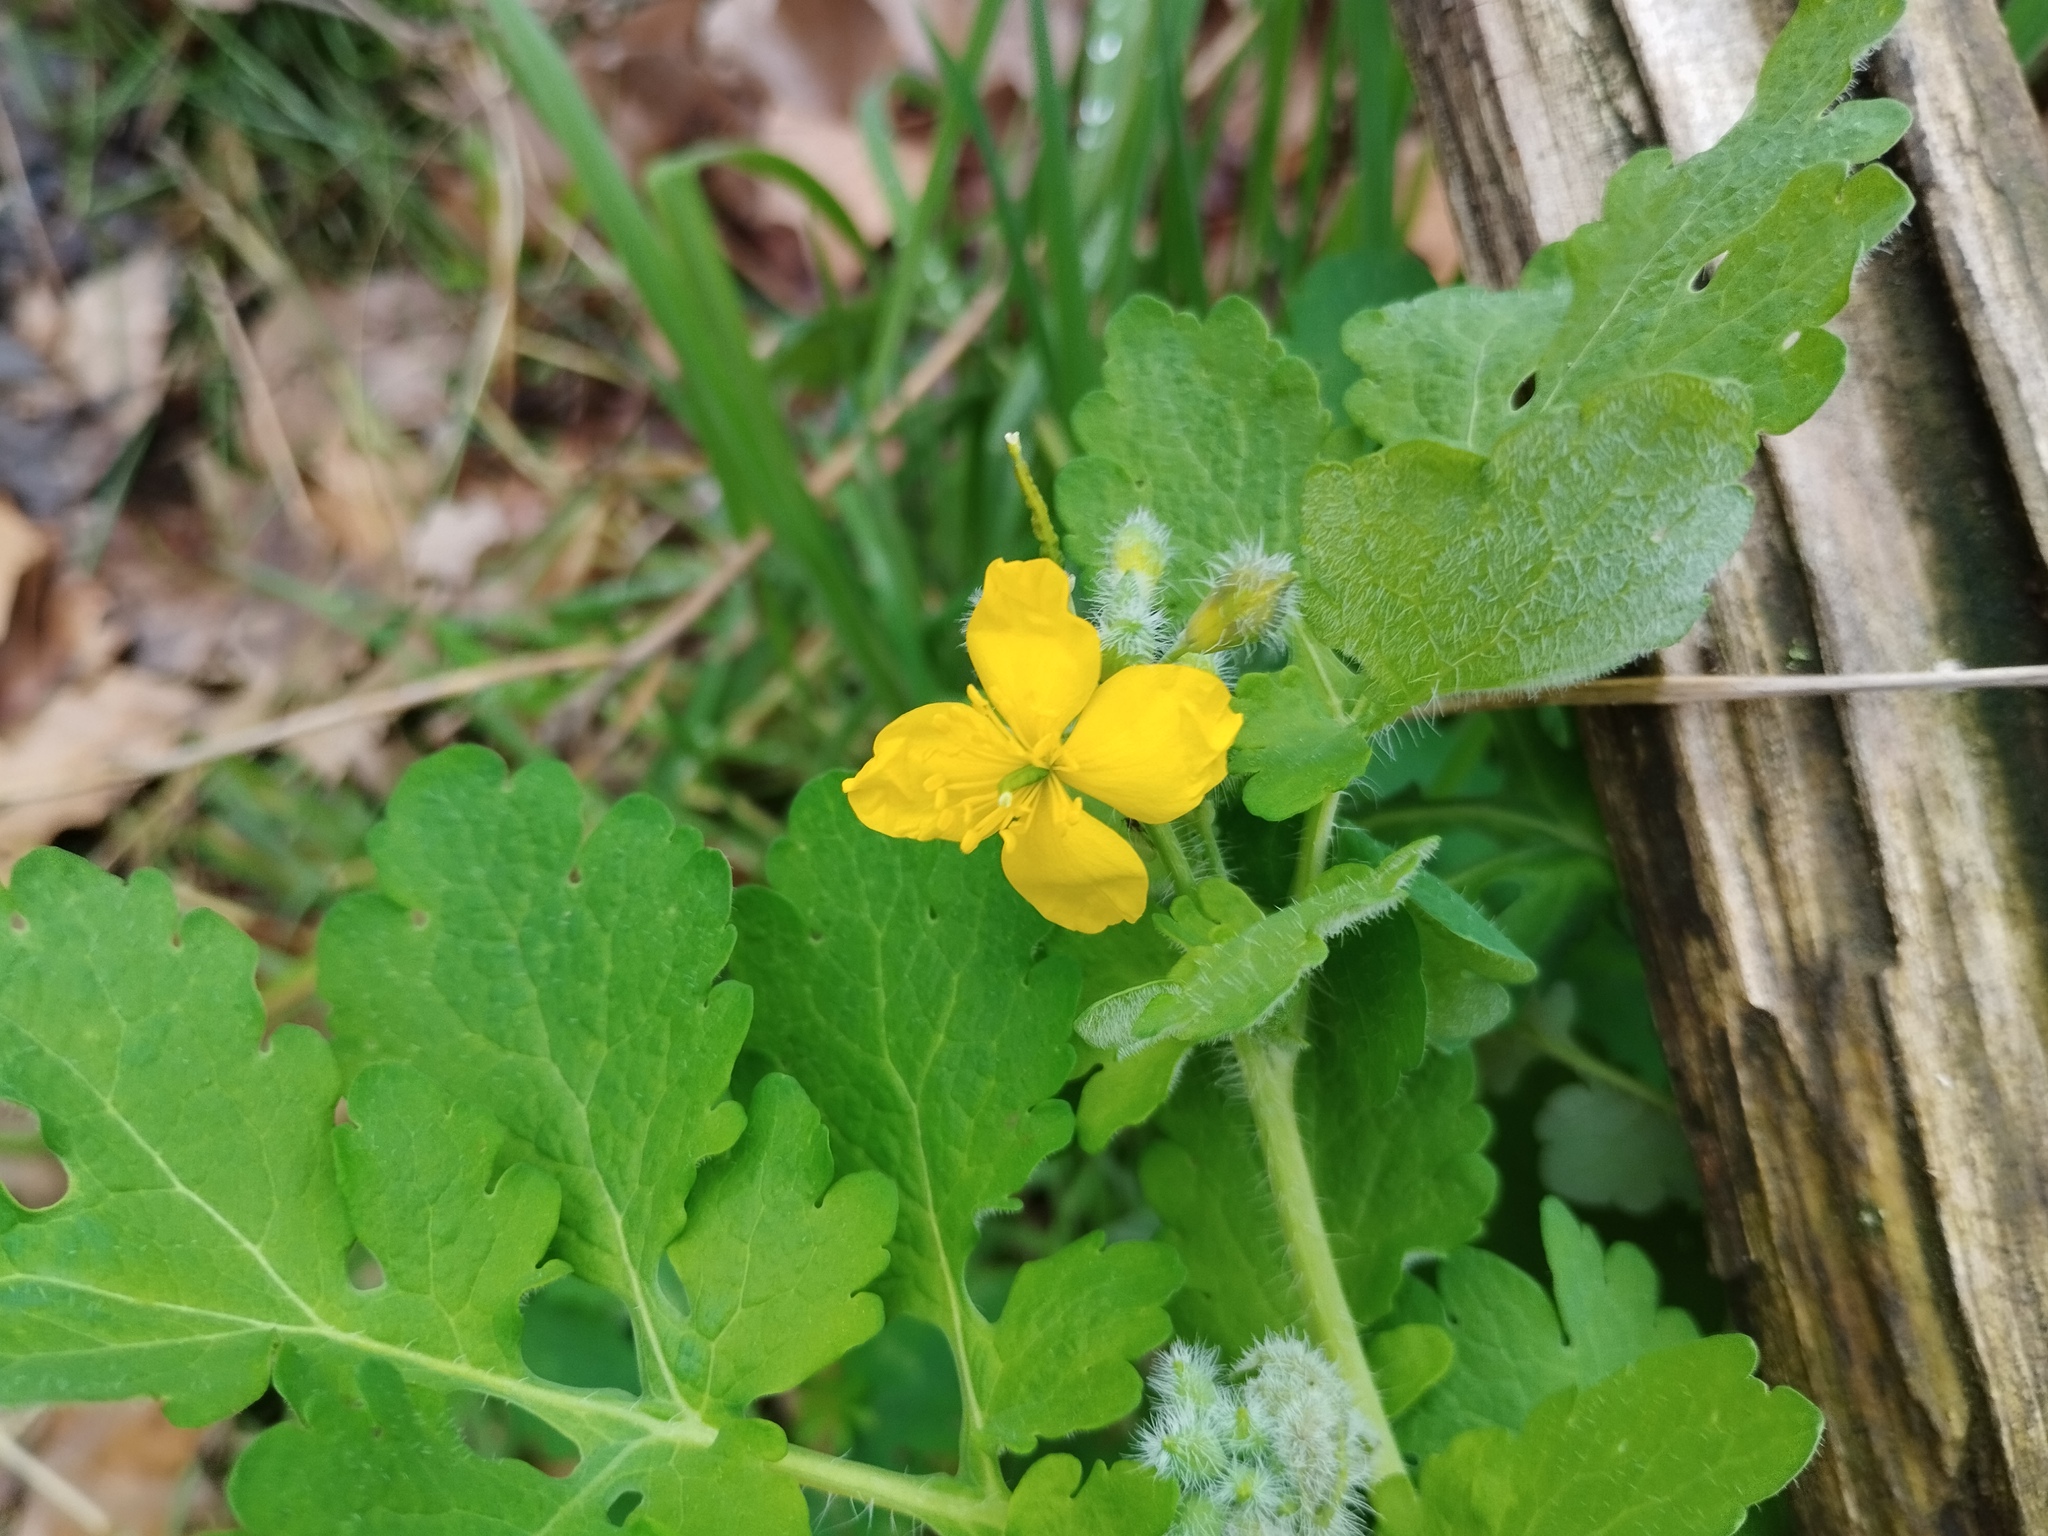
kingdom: Plantae
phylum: Tracheophyta
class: Magnoliopsida
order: Ranunculales
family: Papaveraceae
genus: Chelidonium
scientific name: Chelidonium majus
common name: Greater celandine
